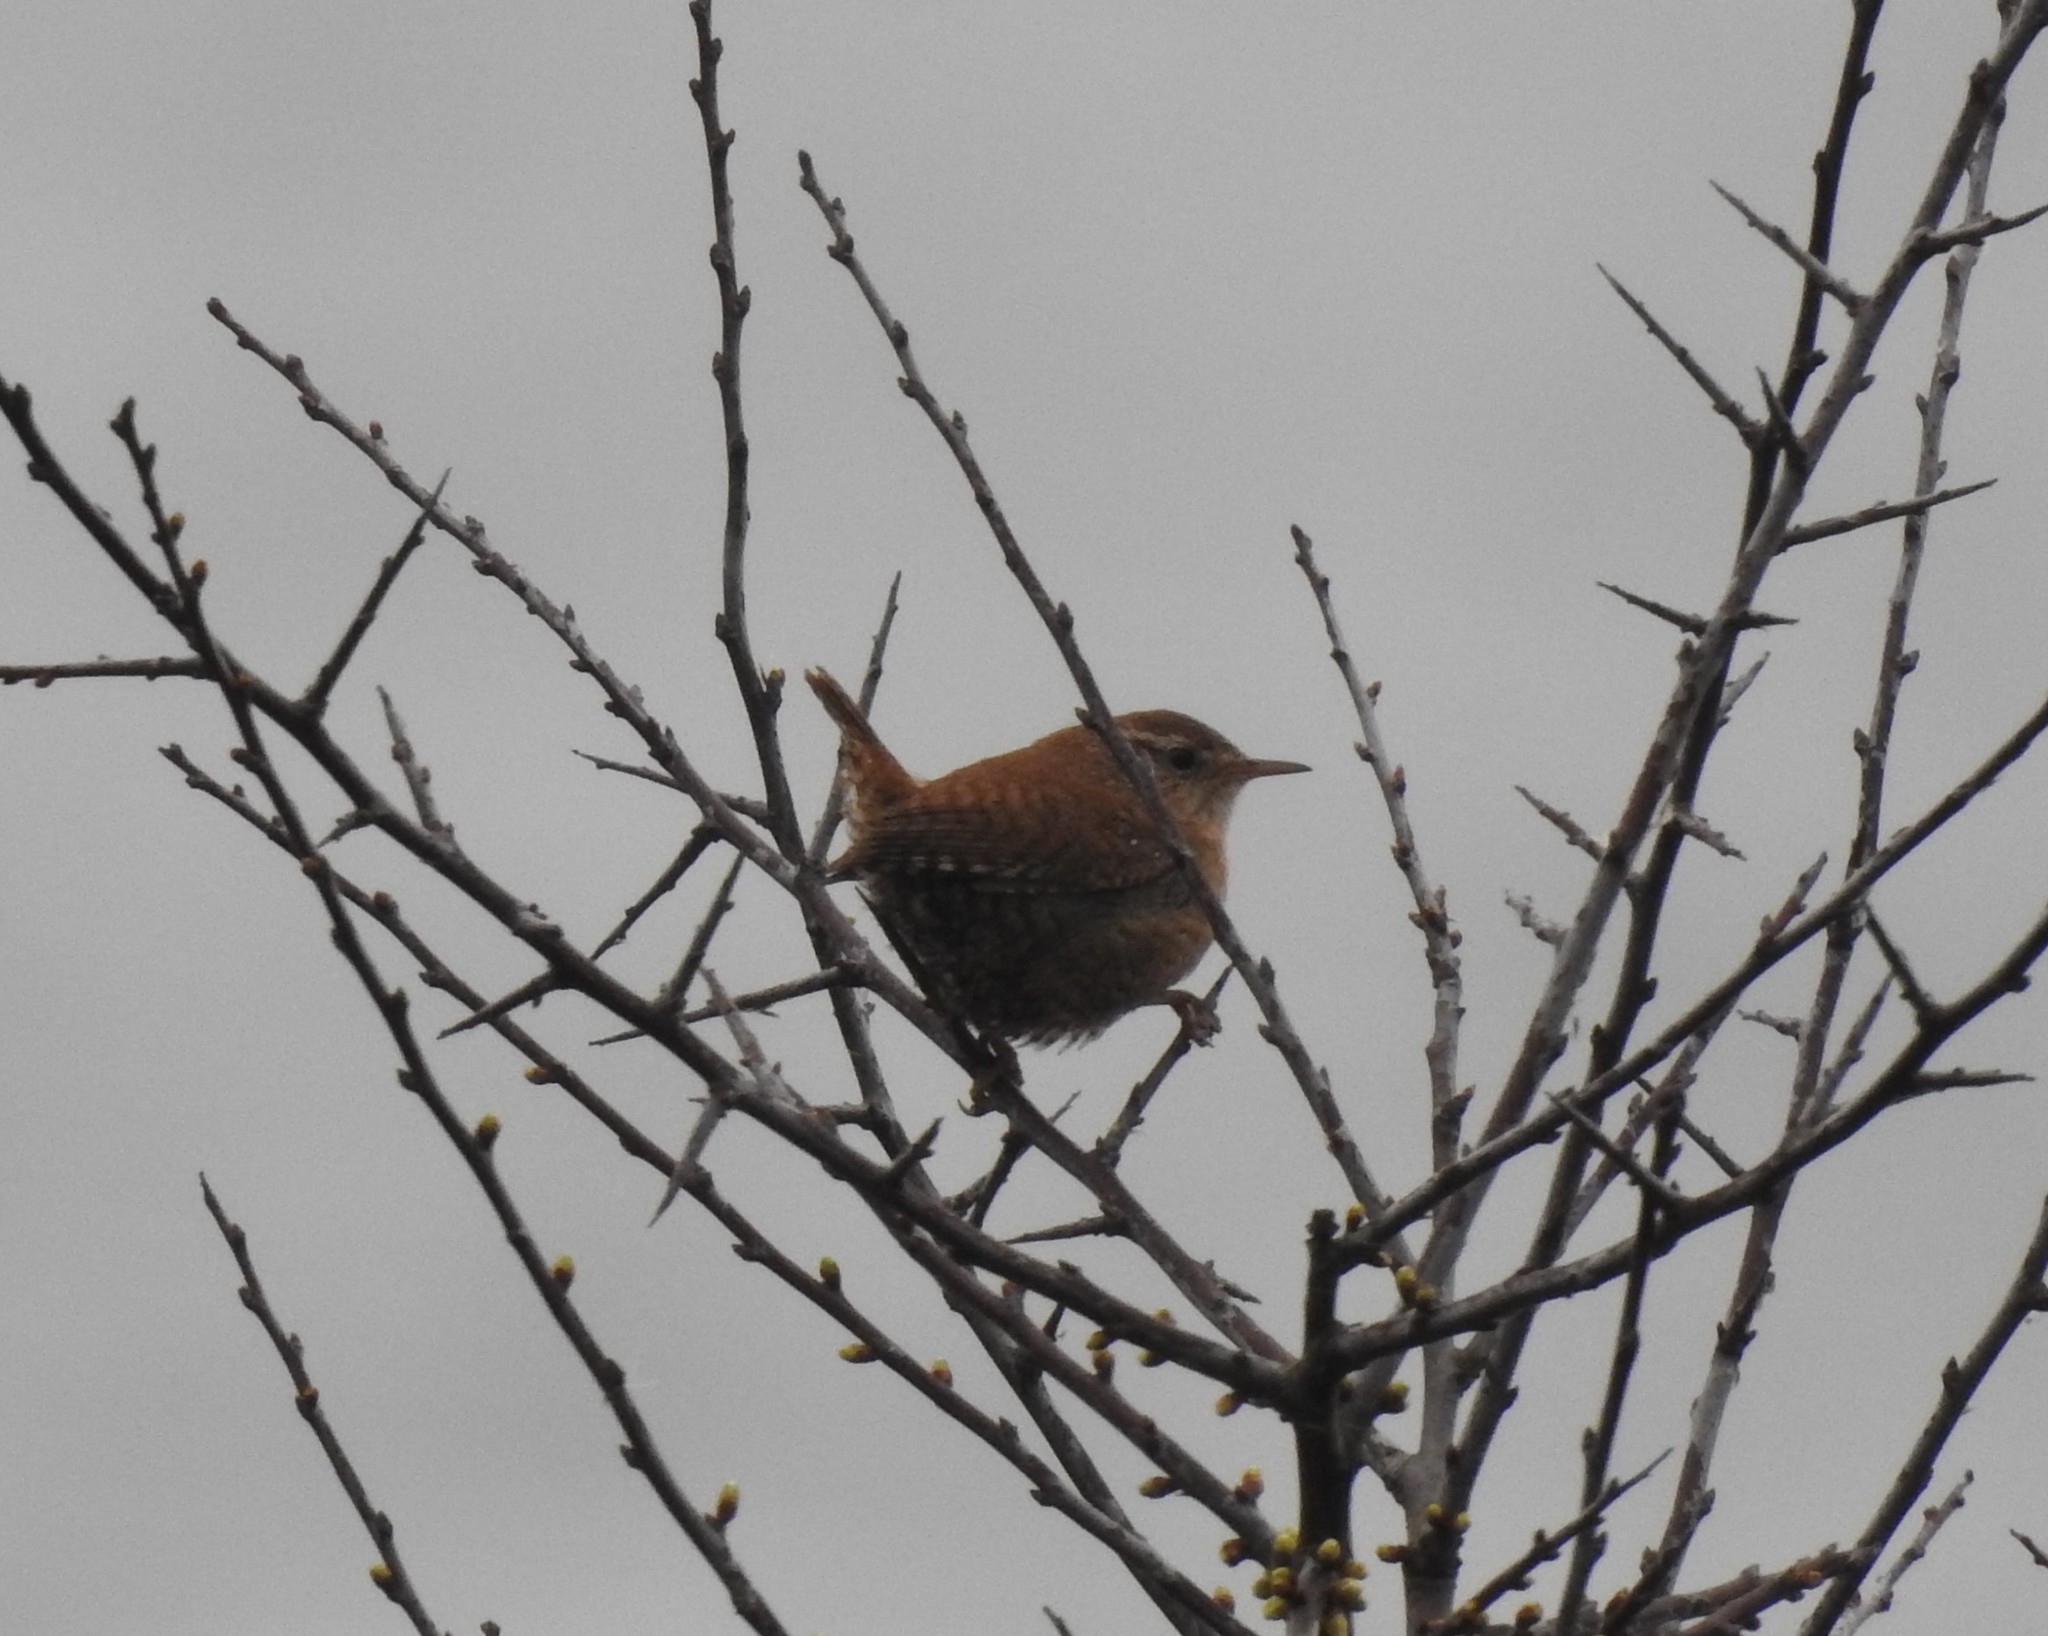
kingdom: Animalia
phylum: Chordata
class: Aves
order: Passeriformes
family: Troglodytidae
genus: Troglodytes
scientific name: Troglodytes troglodytes
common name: Eurasian wren
